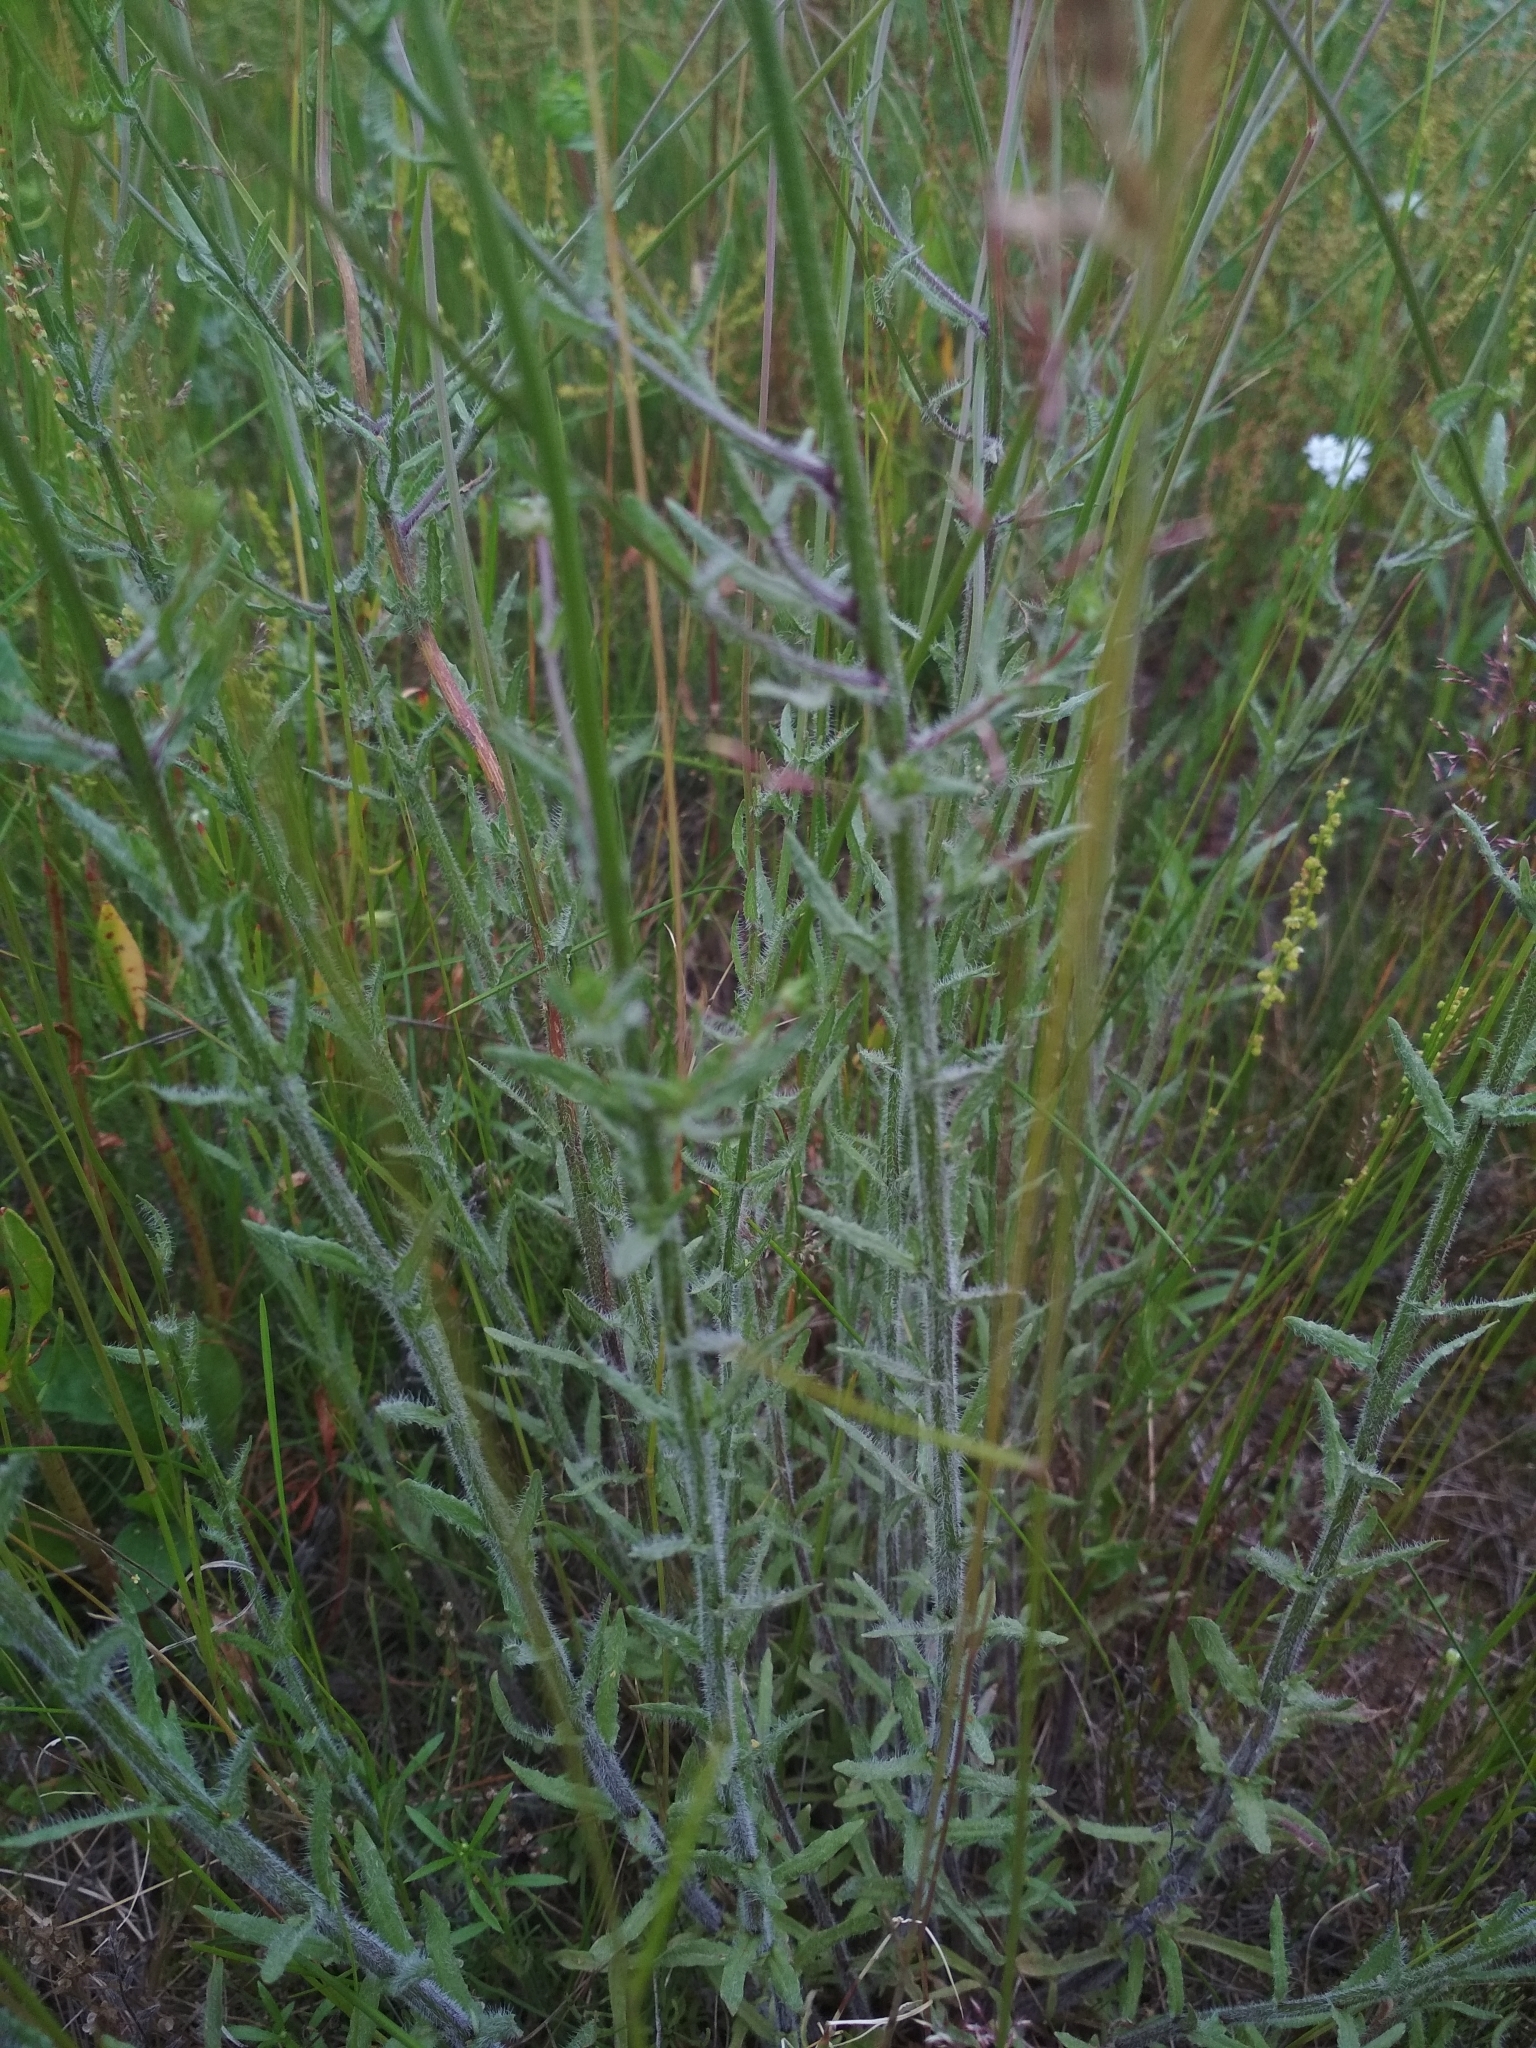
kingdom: Plantae
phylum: Tracheophyta
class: Magnoliopsida
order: Asterales
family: Campanulaceae
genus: Jasione
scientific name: Jasione montana
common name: Sheep's-bit
